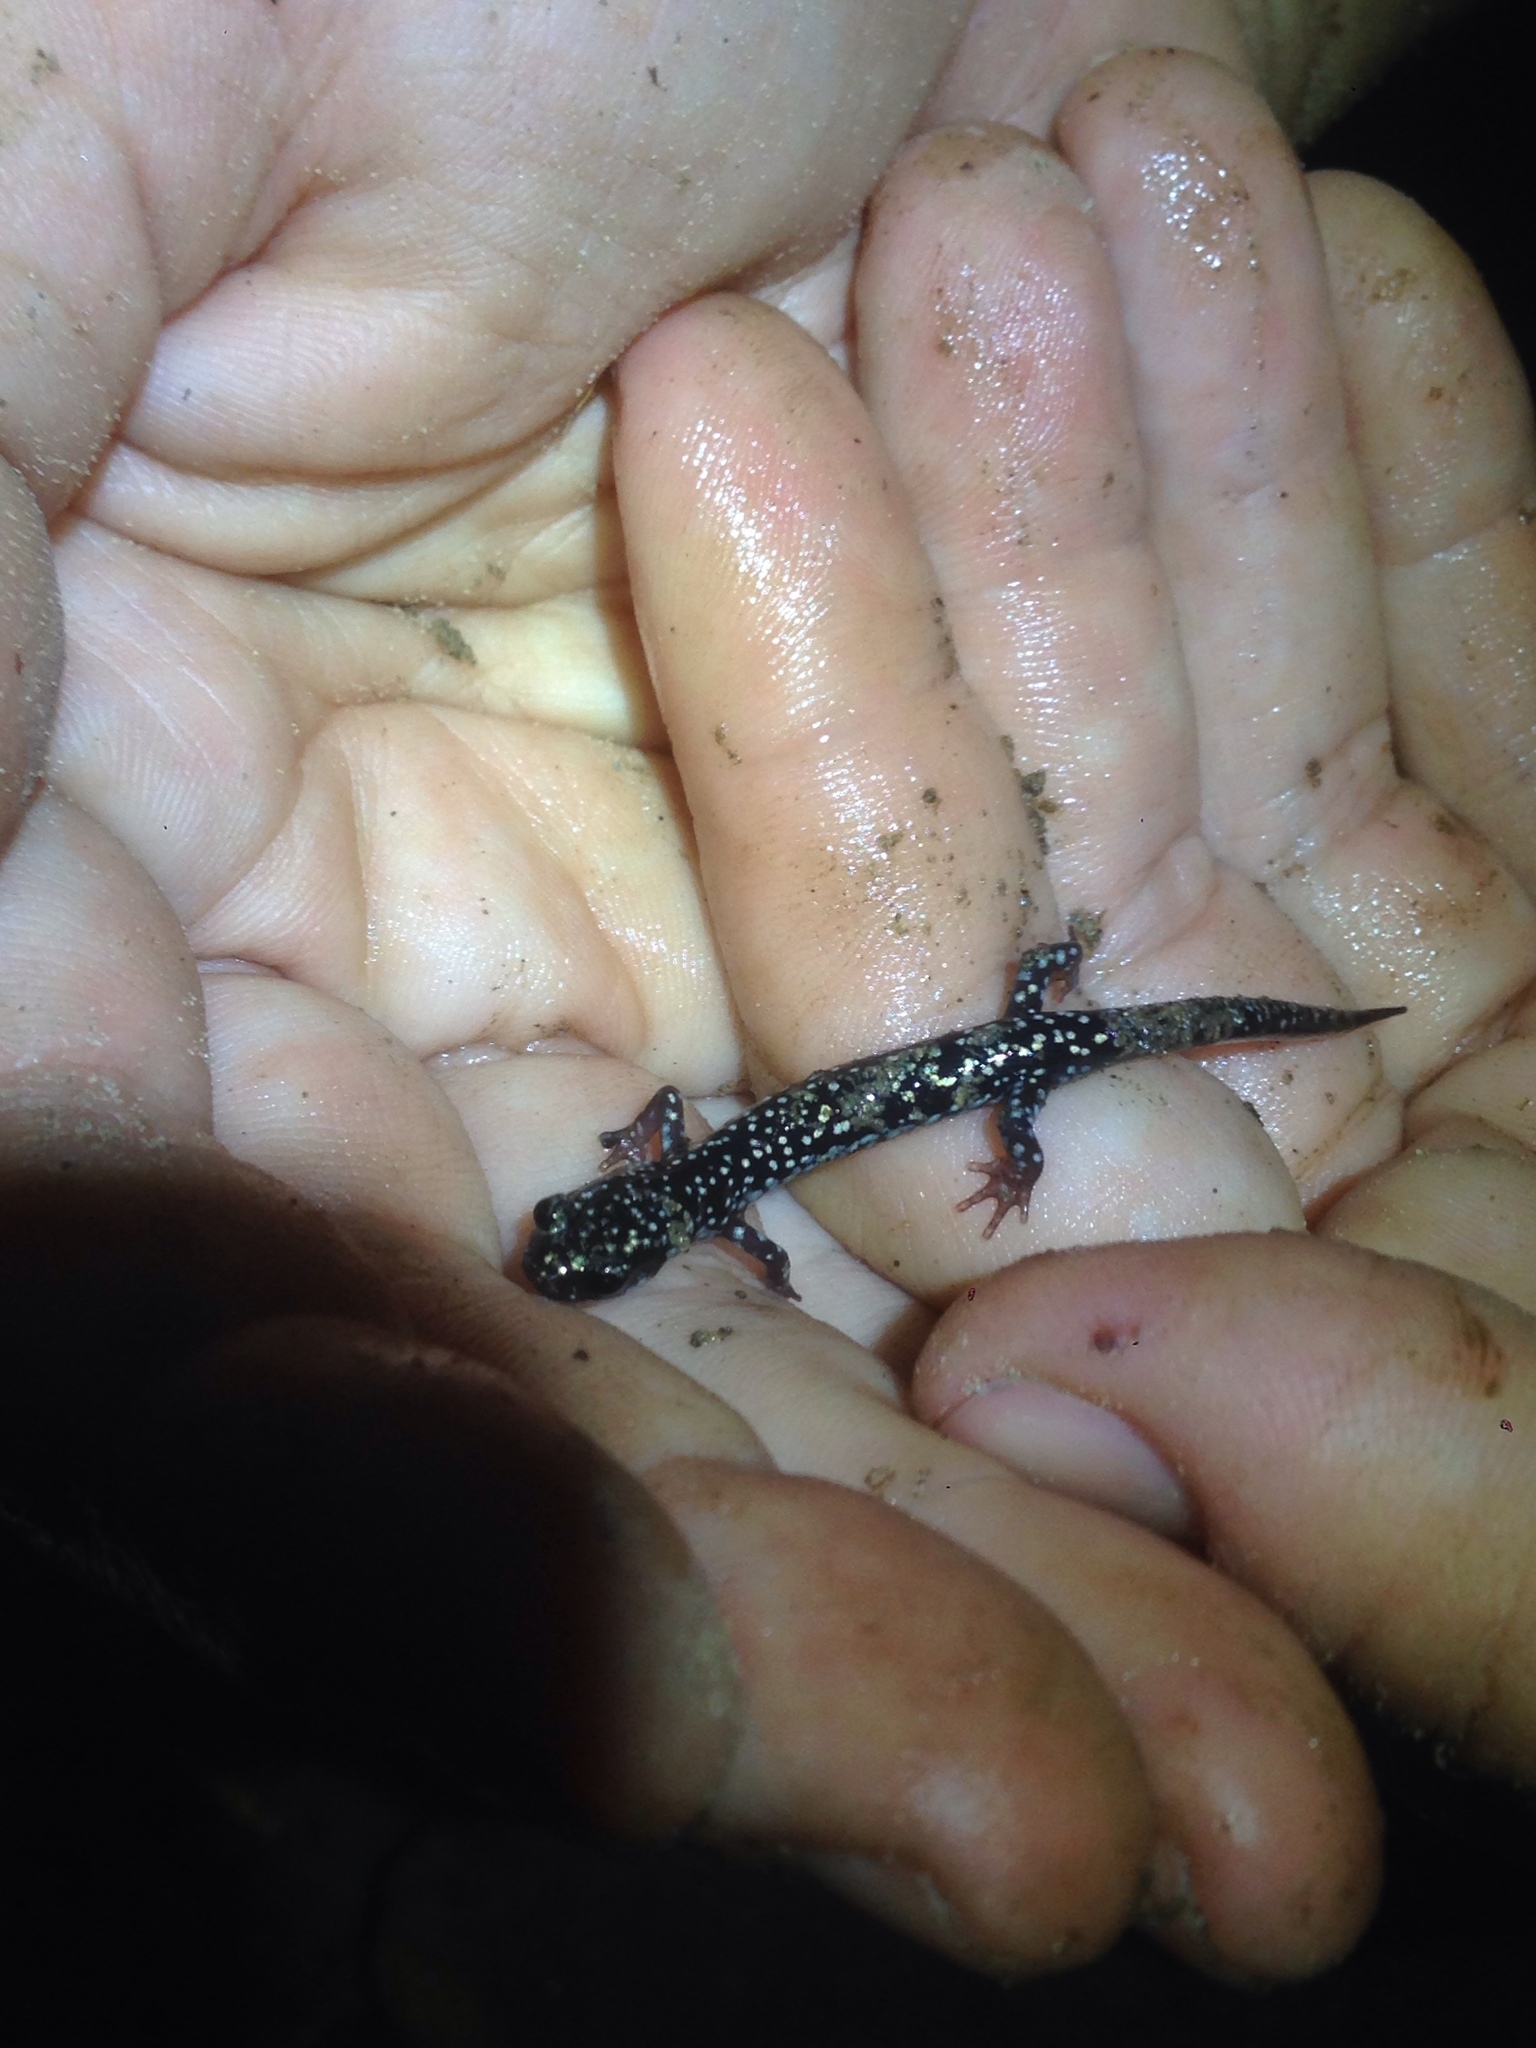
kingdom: Animalia
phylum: Chordata
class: Amphibia
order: Caudata
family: Plethodontidae
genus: Plethodon
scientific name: Plethodon glutinosus
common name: Northern slimy salamander
